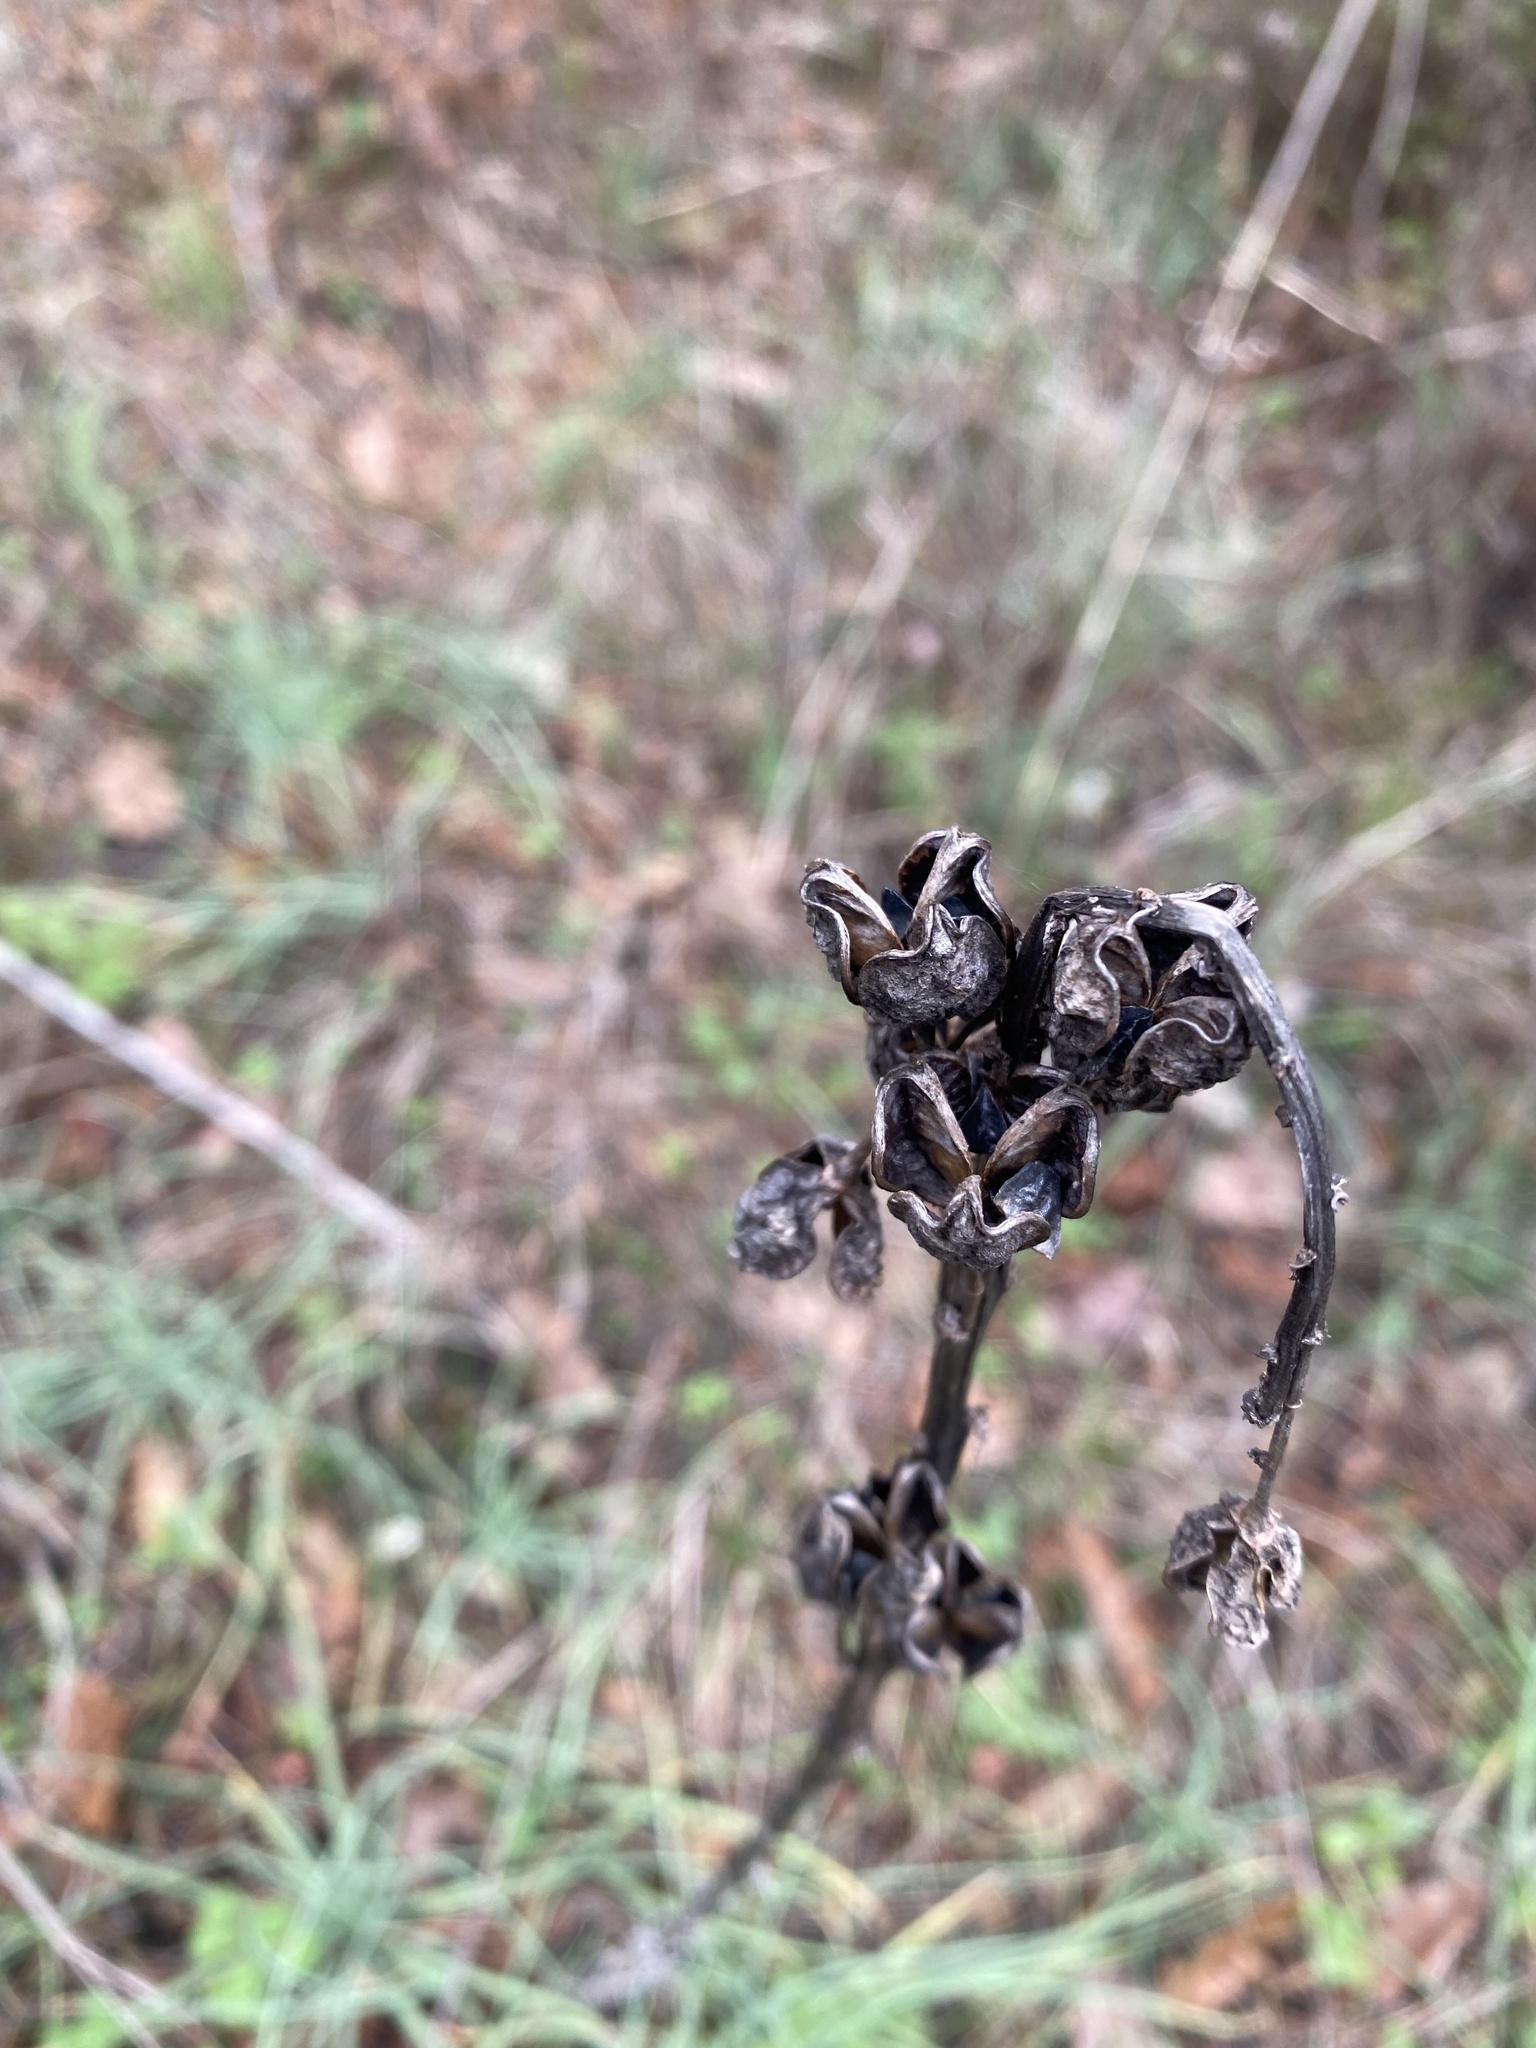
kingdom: Plantae
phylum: Tracheophyta
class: Liliopsida
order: Asparagales
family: Asphodelaceae
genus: Asphodeline
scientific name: Asphodeline lutea
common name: Yellow asphodel
